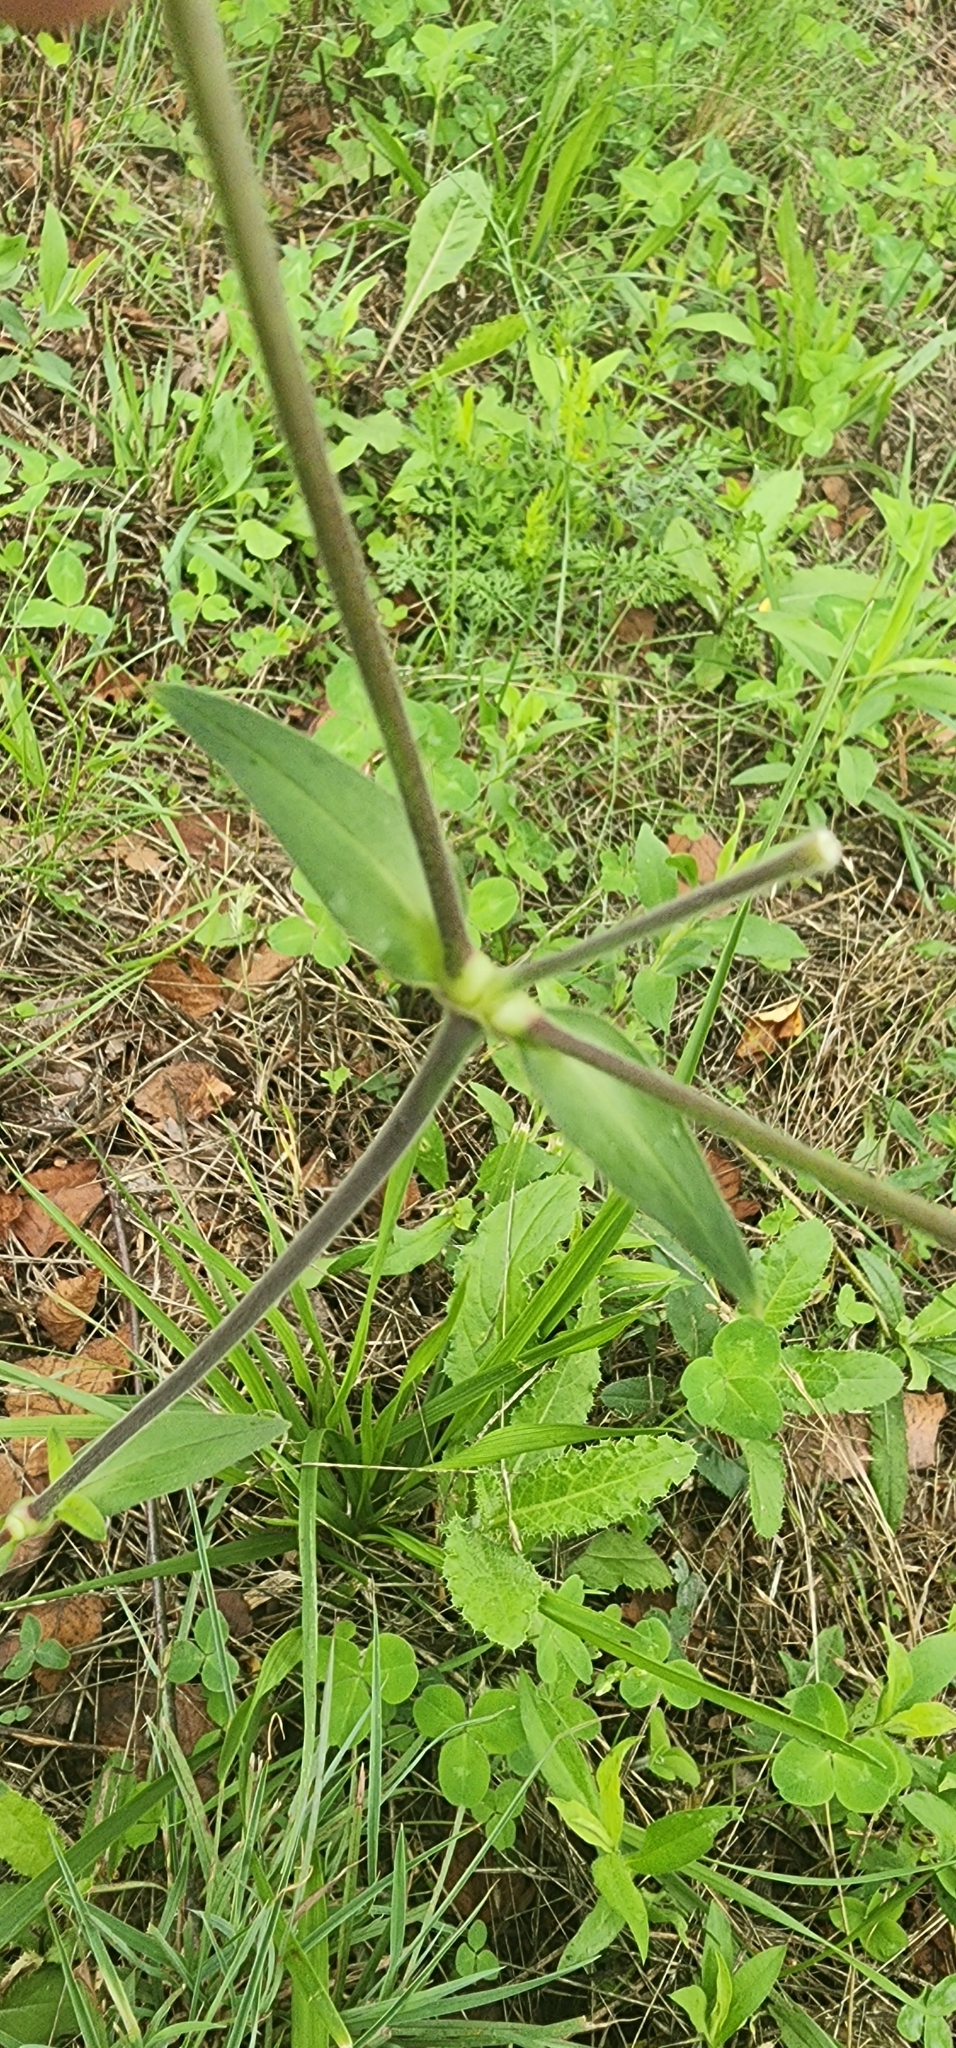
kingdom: Plantae
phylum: Tracheophyta
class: Magnoliopsida
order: Caryophyllales
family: Caryophyllaceae
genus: Silene
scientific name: Silene latifolia
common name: White campion
